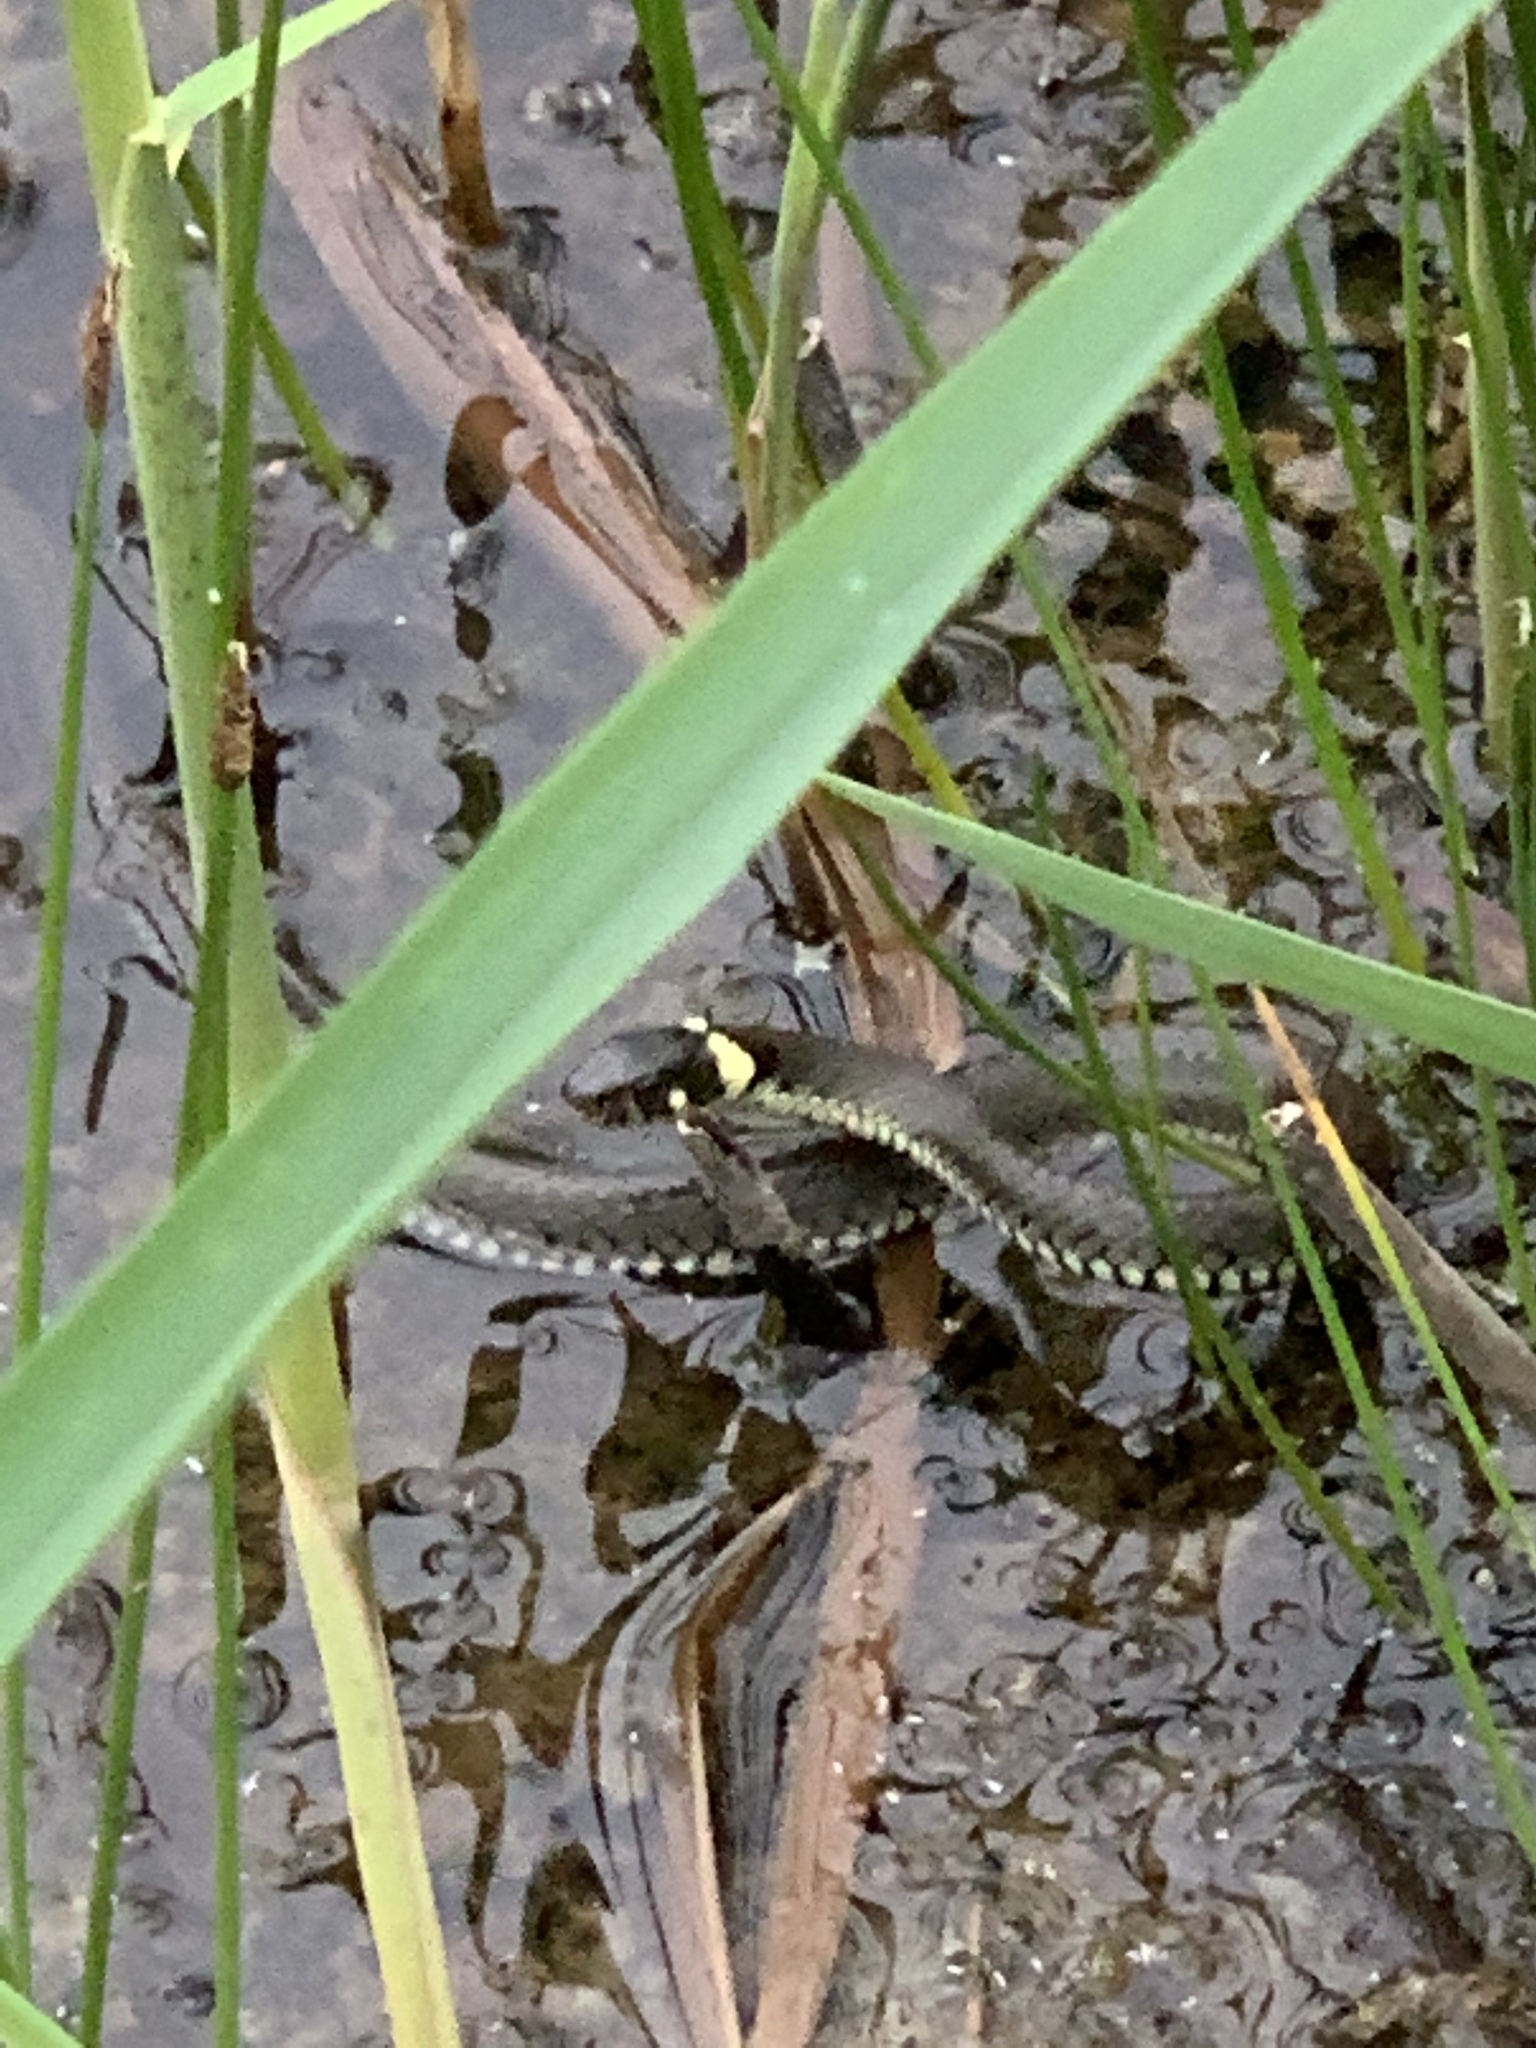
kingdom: Animalia
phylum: Chordata
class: Squamata
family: Colubridae
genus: Natrix
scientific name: Natrix natrix
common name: Grass snake
